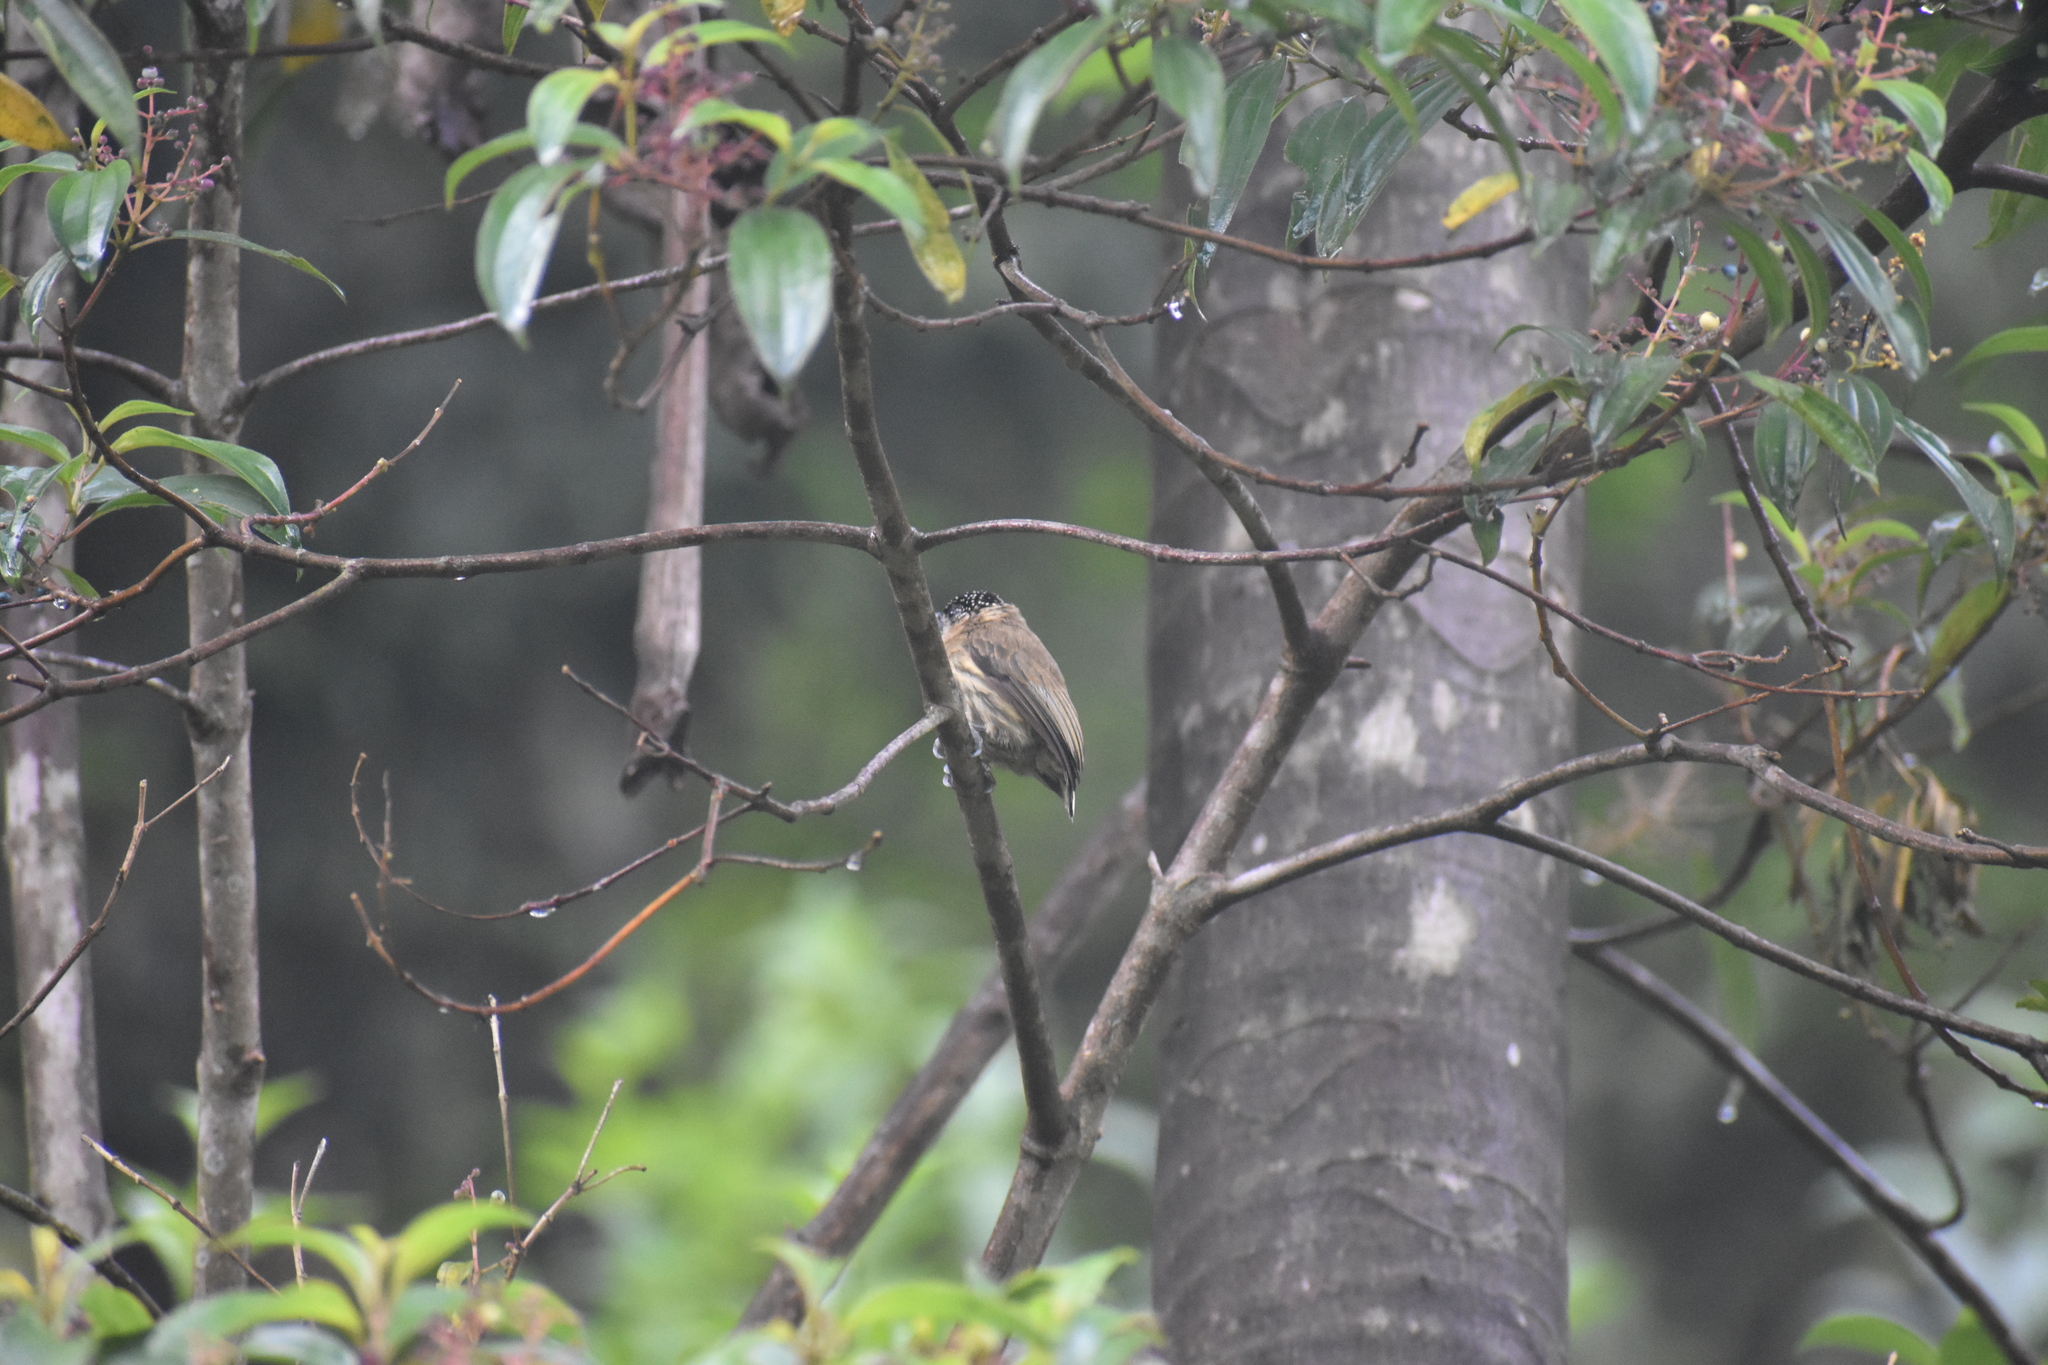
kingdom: Animalia
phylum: Chordata
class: Aves
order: Piciformes
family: Picidae
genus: Picumnus
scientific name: Picumnus olivaceus
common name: Olivaceous piculet
